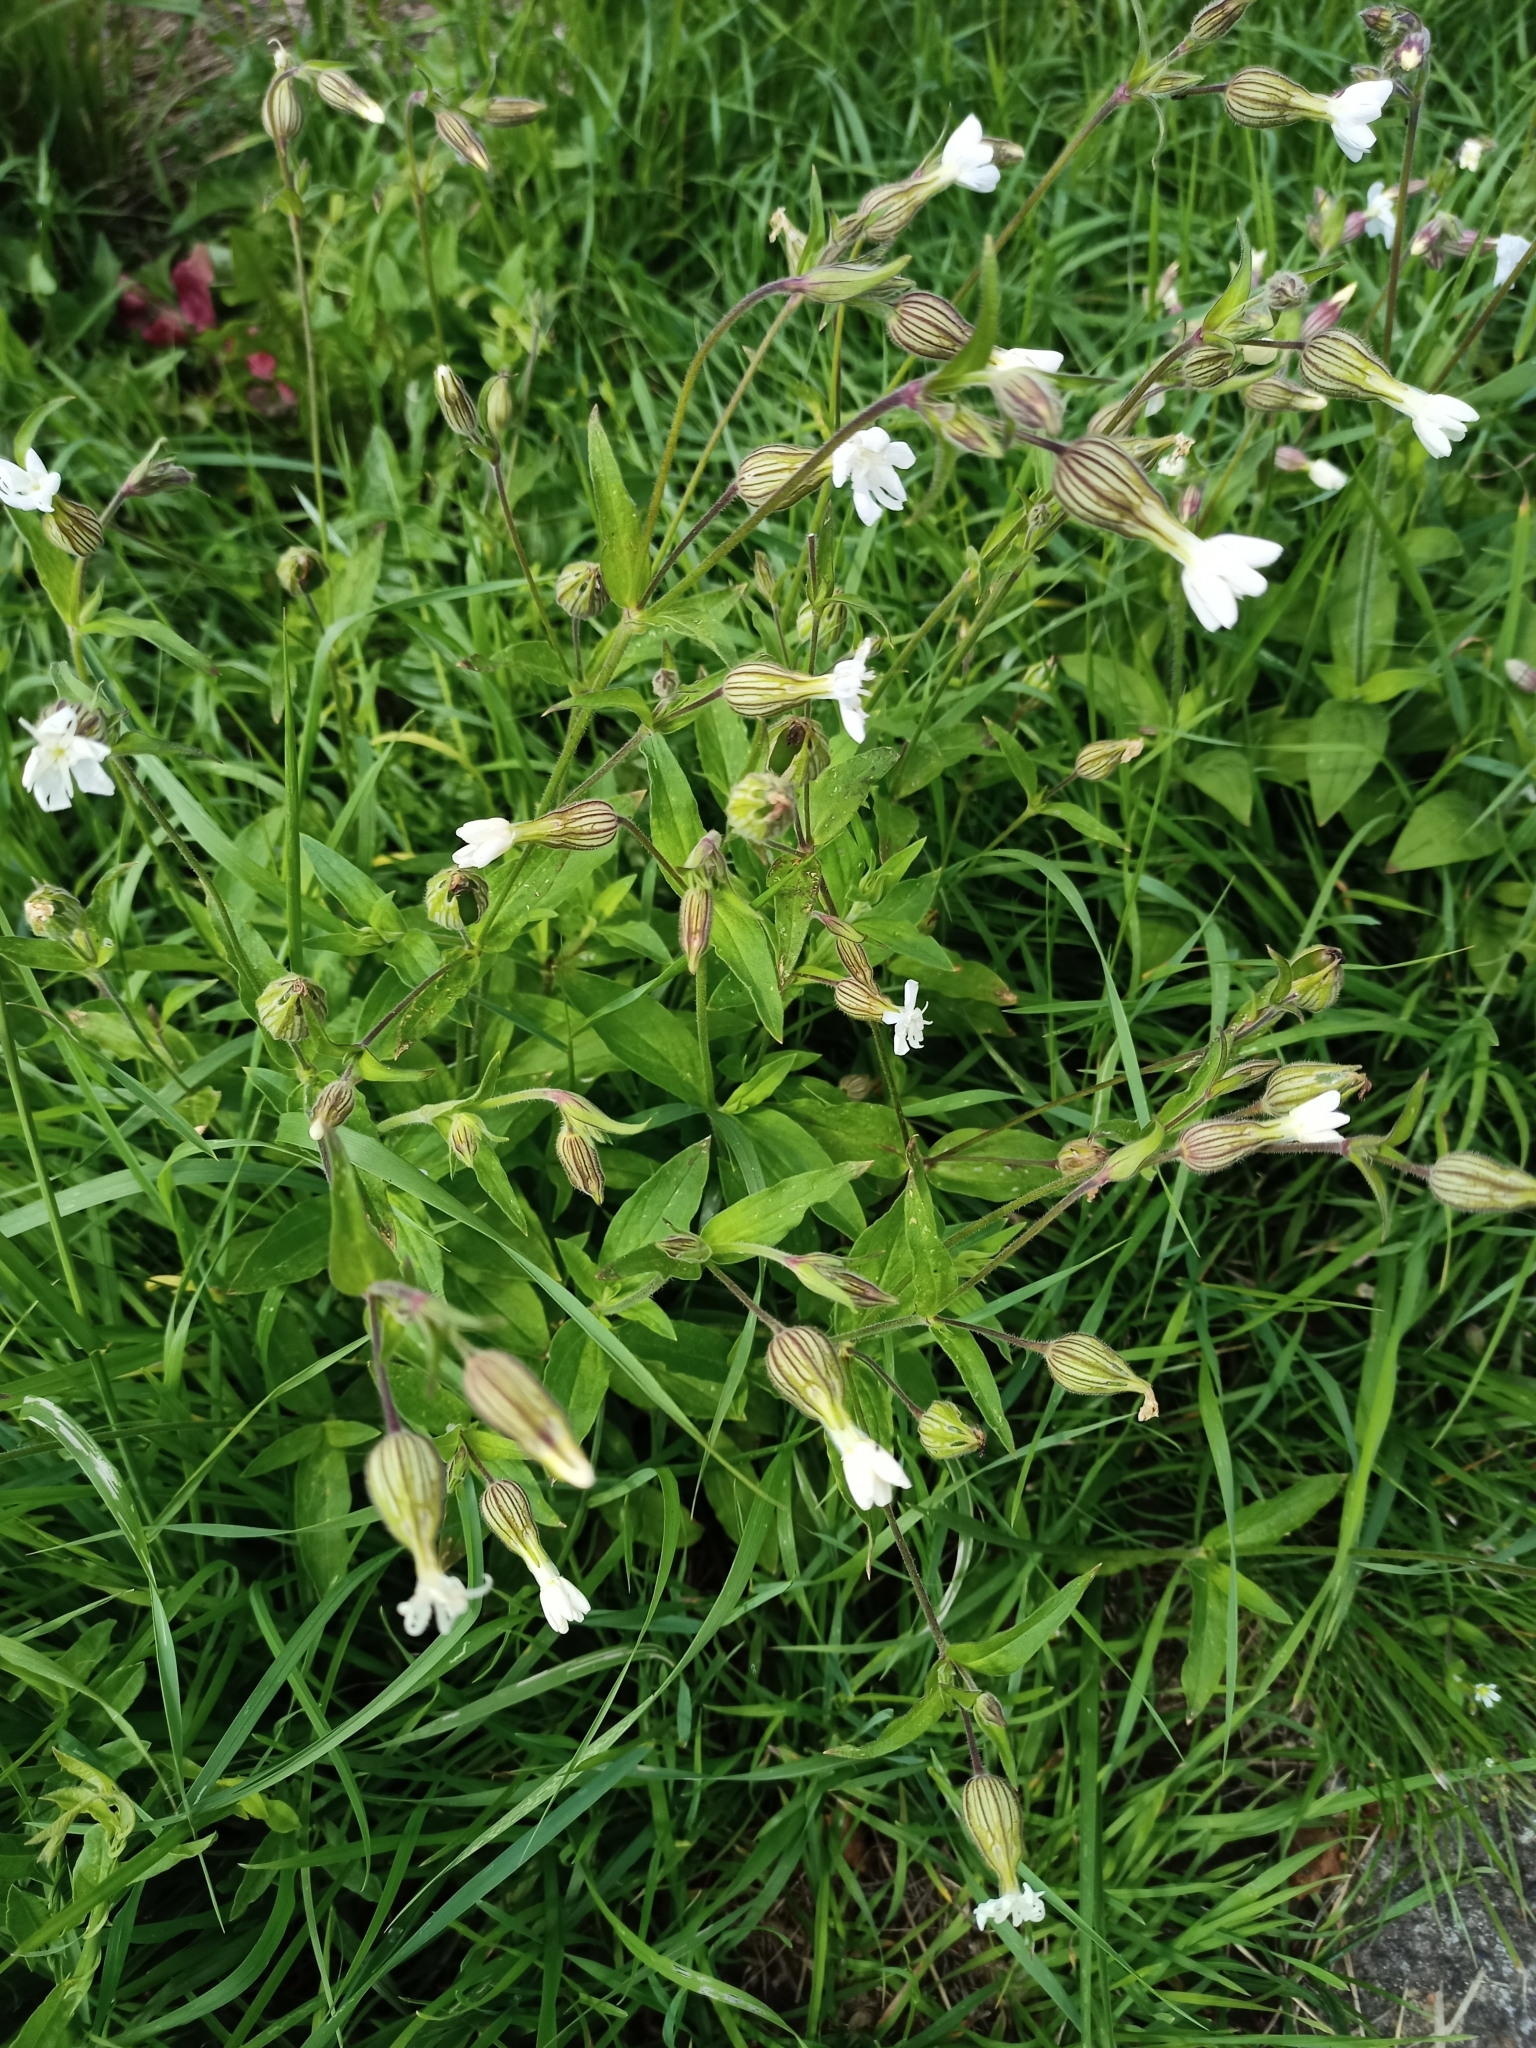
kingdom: Plantae
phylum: Tracheophyta
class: Magnoliopsida
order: Caryophyllales
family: Caryophyllaceae
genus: Silene
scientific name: Silene latifolia
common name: White campion
